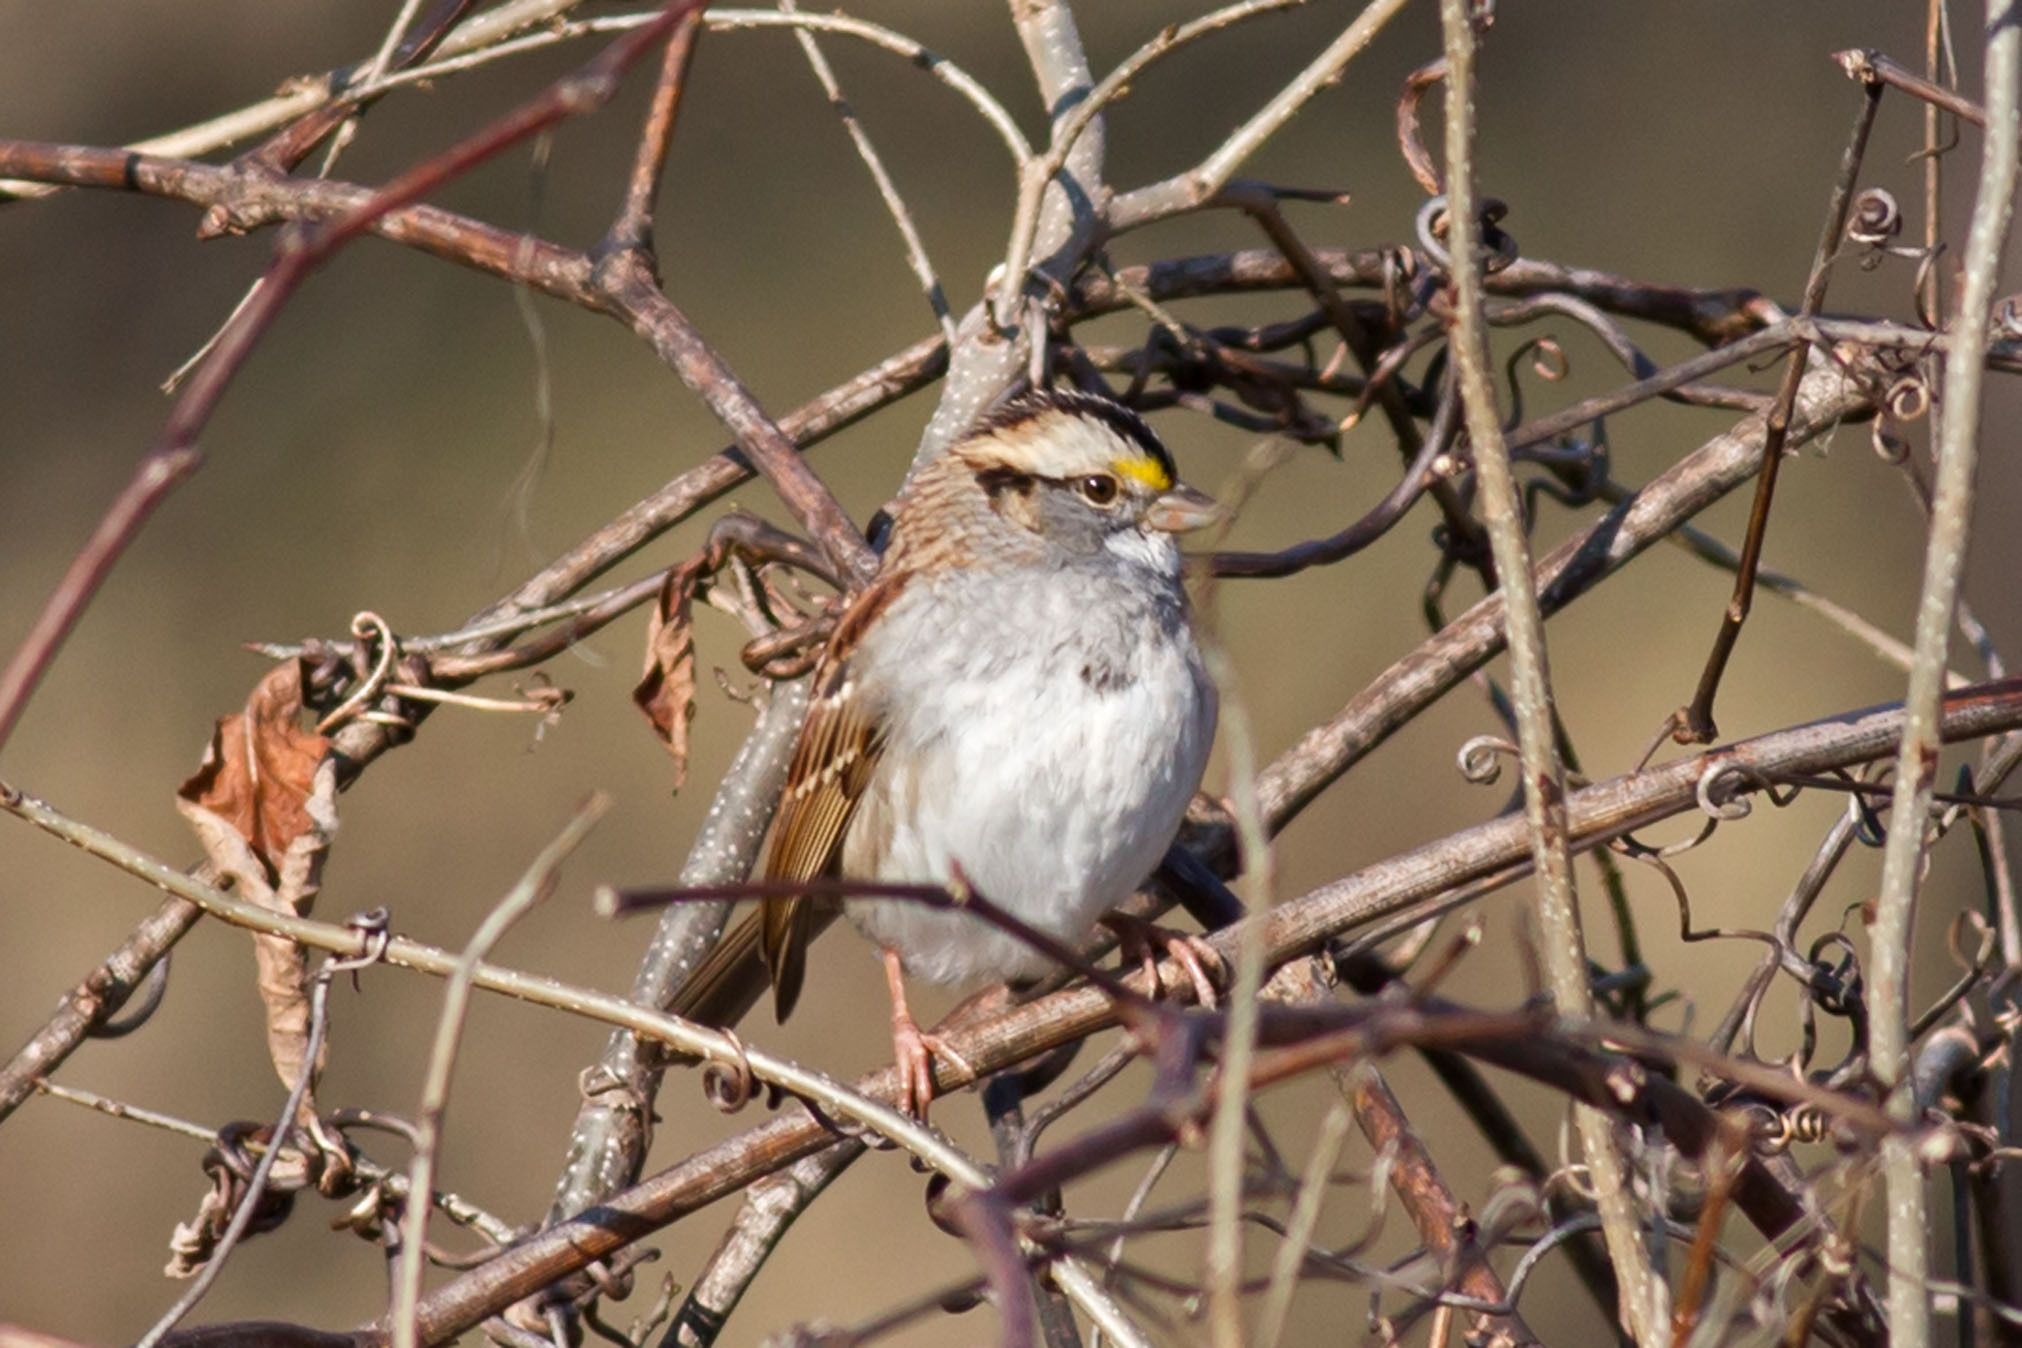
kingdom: Animalia
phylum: Chordata
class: Aves
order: Passeriformes
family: Passerellidae
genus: Zonotrichia
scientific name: Zonotrichia albicollis
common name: White-throated sparrow
